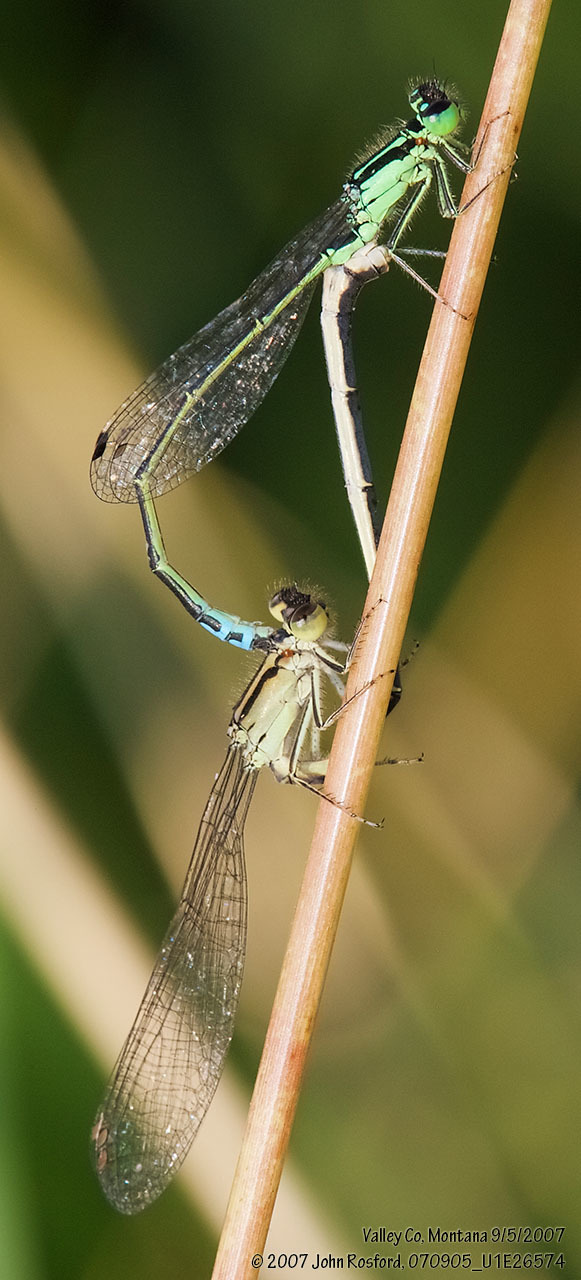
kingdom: Animalia
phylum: Arthropoda
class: Insecta
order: Odonata
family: Coenagrionidae
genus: Ischnura
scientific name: Ischnura verticalis
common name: Eastern forktail
